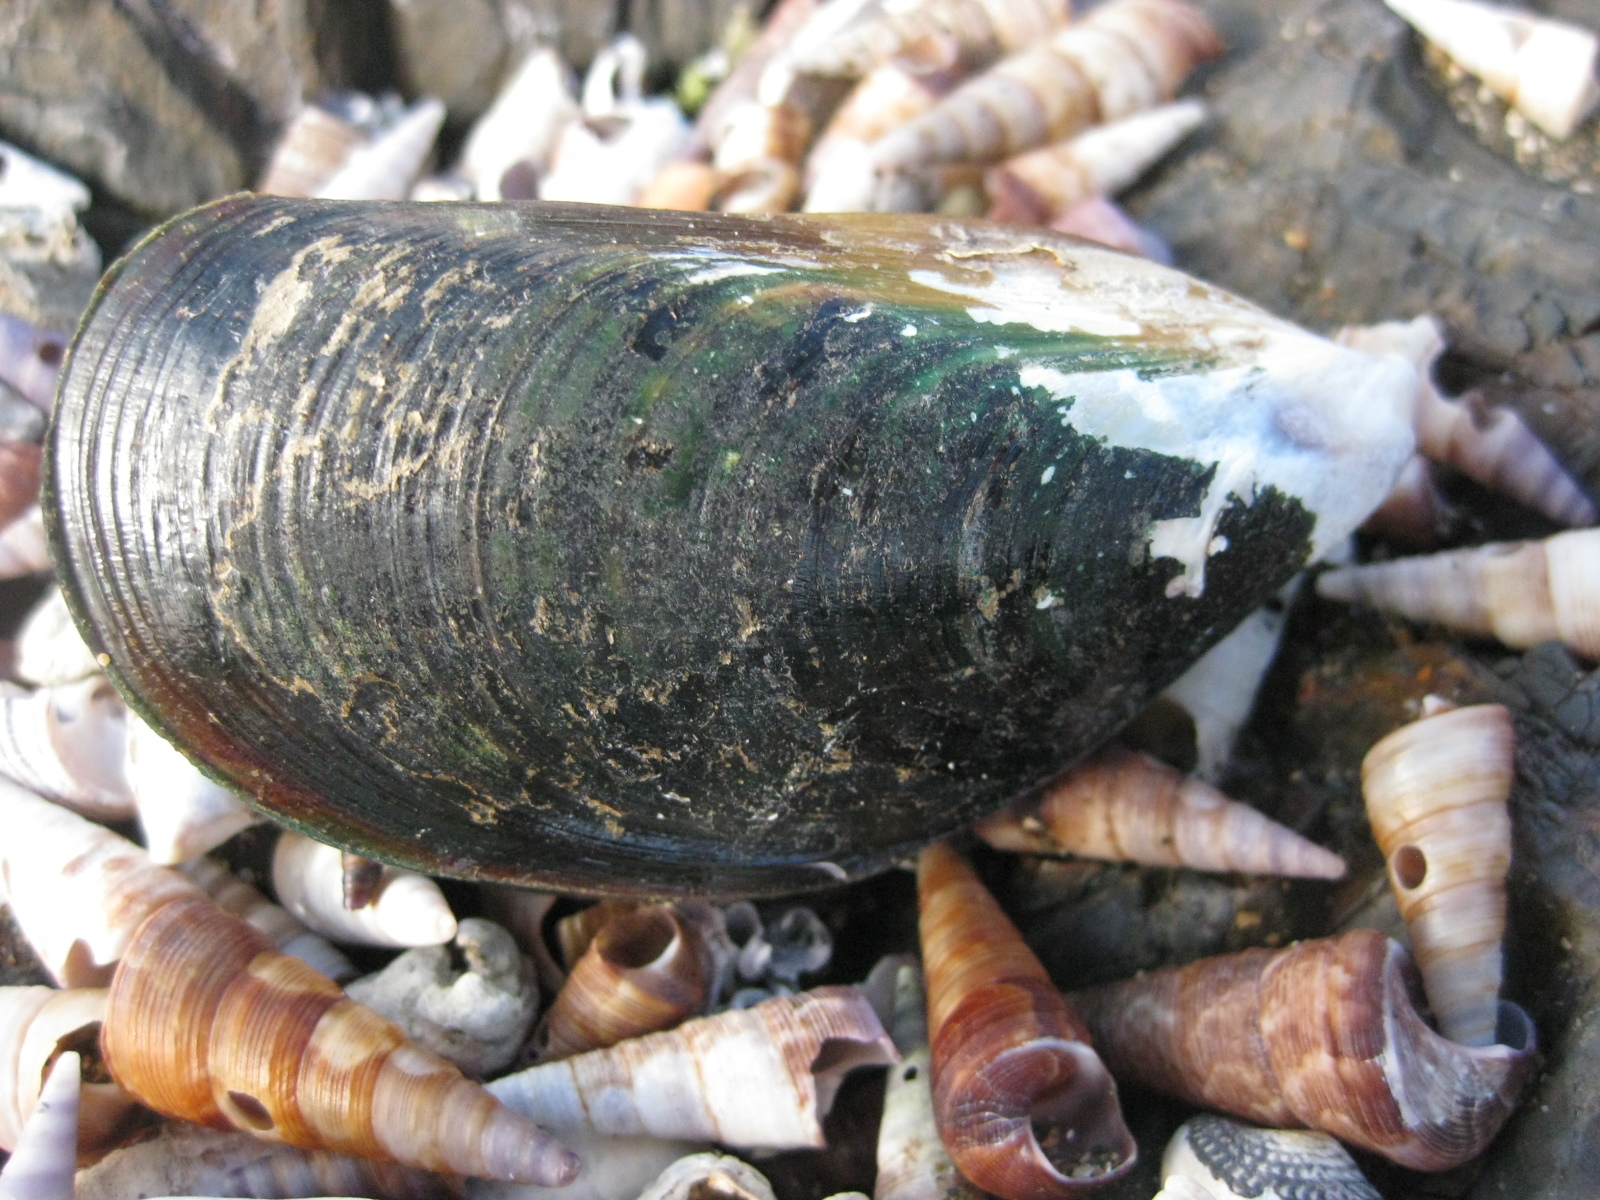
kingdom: Animalia
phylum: Mollusca
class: Bivalvia
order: Mytilida
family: Mytilidae
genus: Perna
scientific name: Perna canaliculus
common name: New zealand greenshelltm
